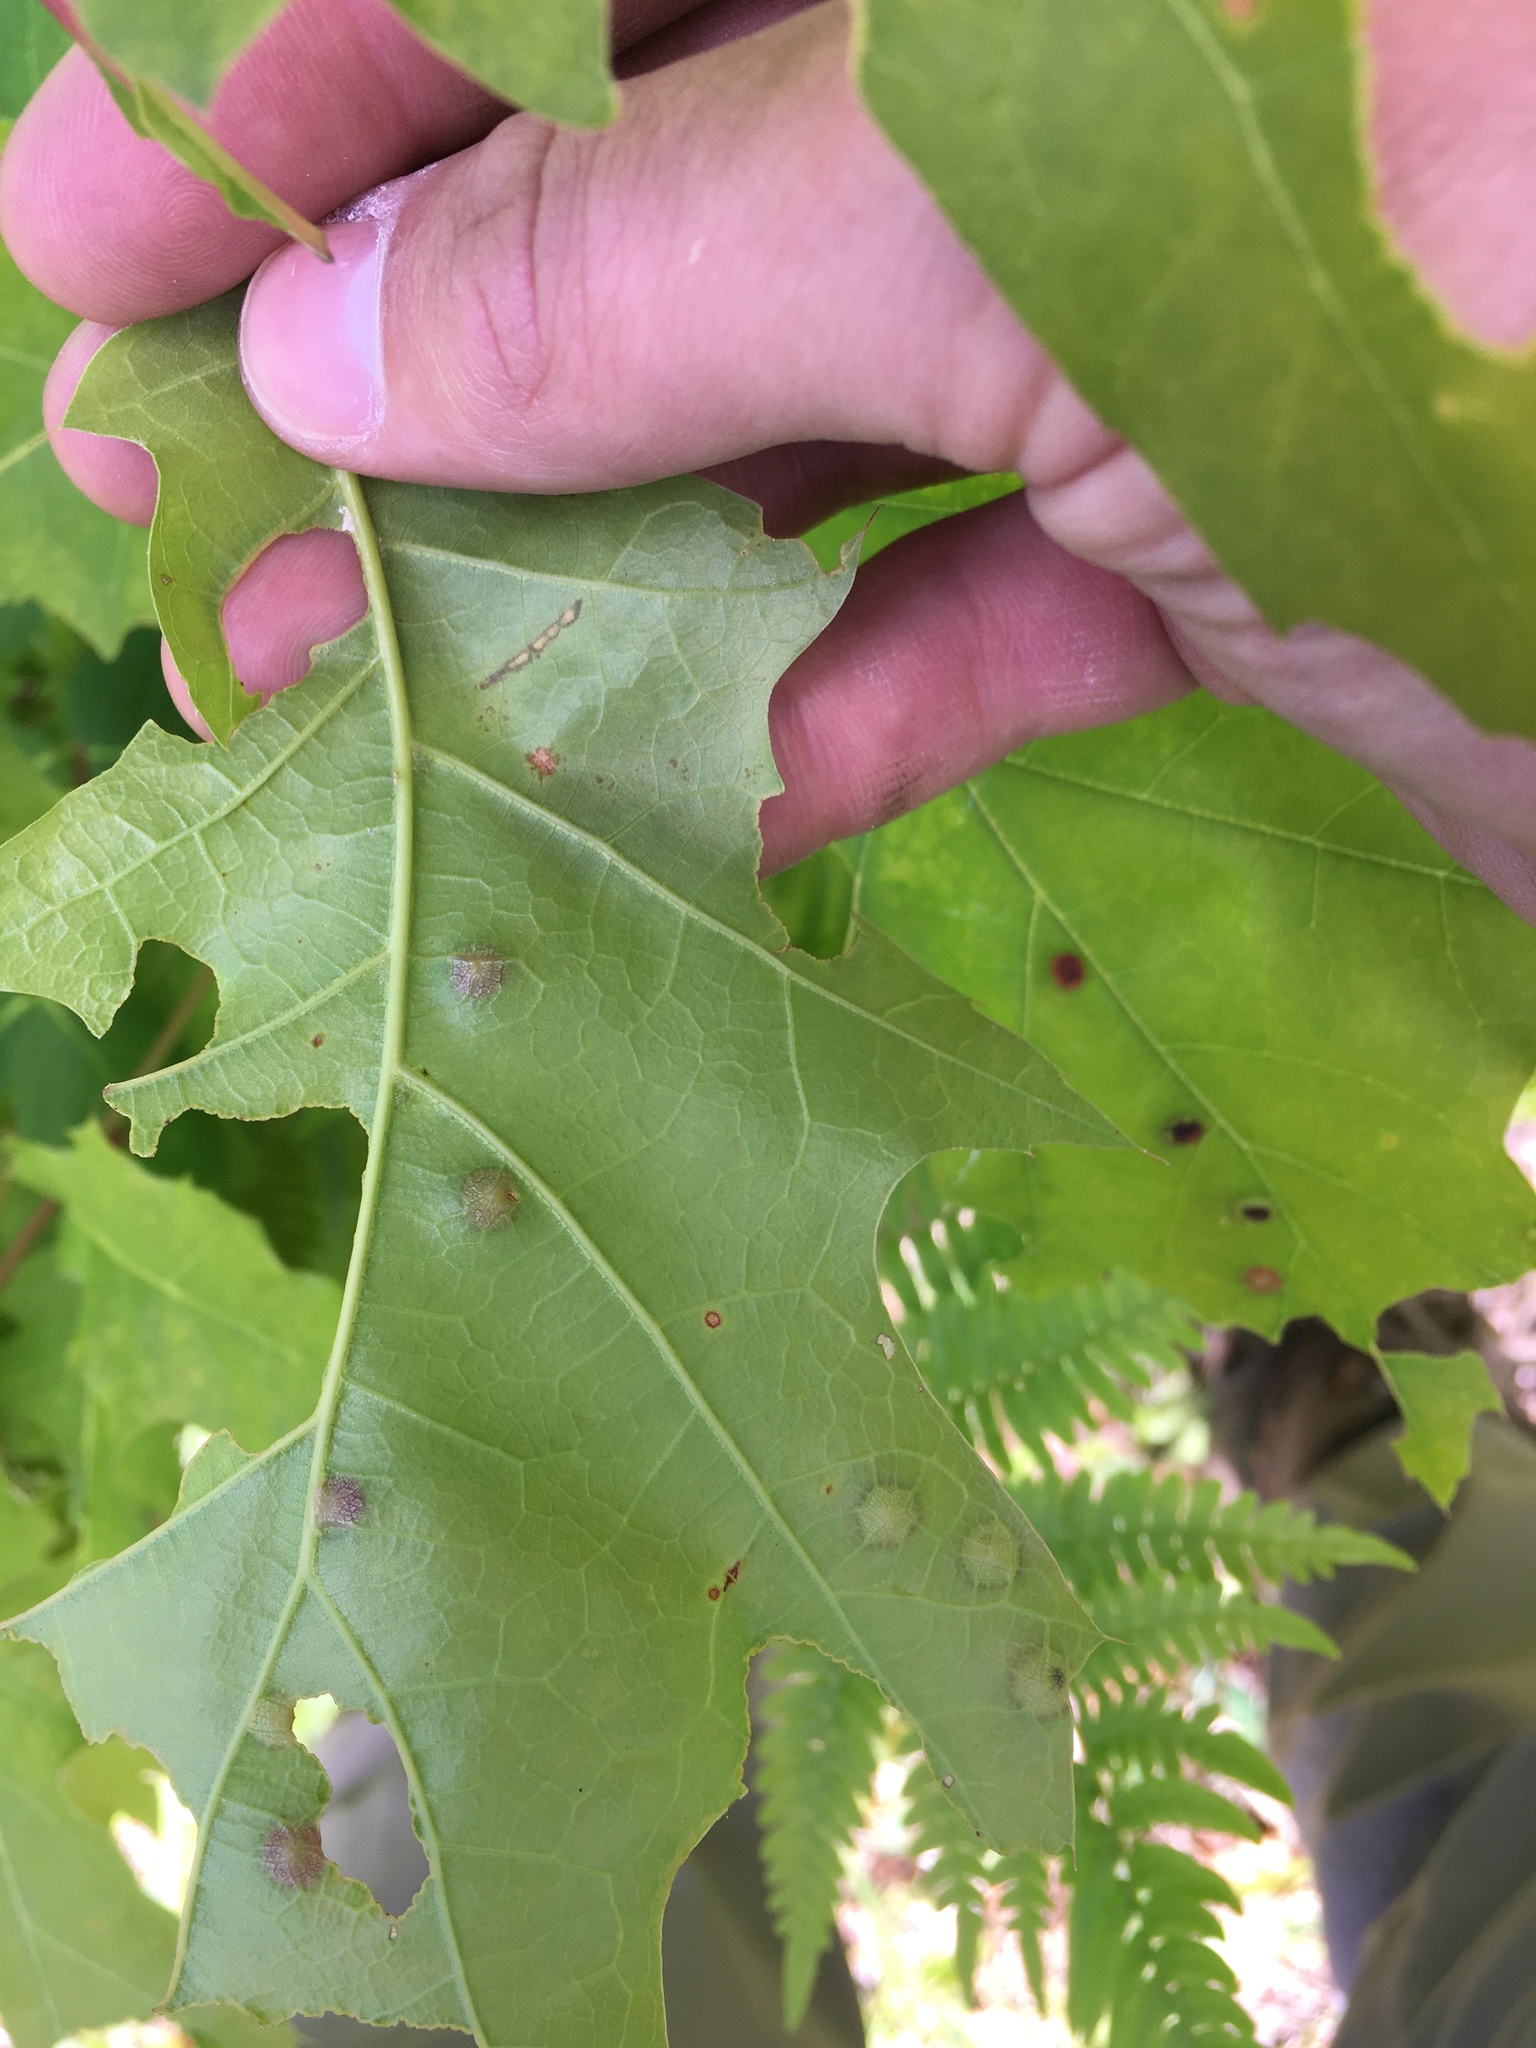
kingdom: Animalia
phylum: Arthropoda
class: Insecta
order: Diptera
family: Cecidomyiidae
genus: Polystepha
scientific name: Polystepha pilulae
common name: Oak leaf gall midge
